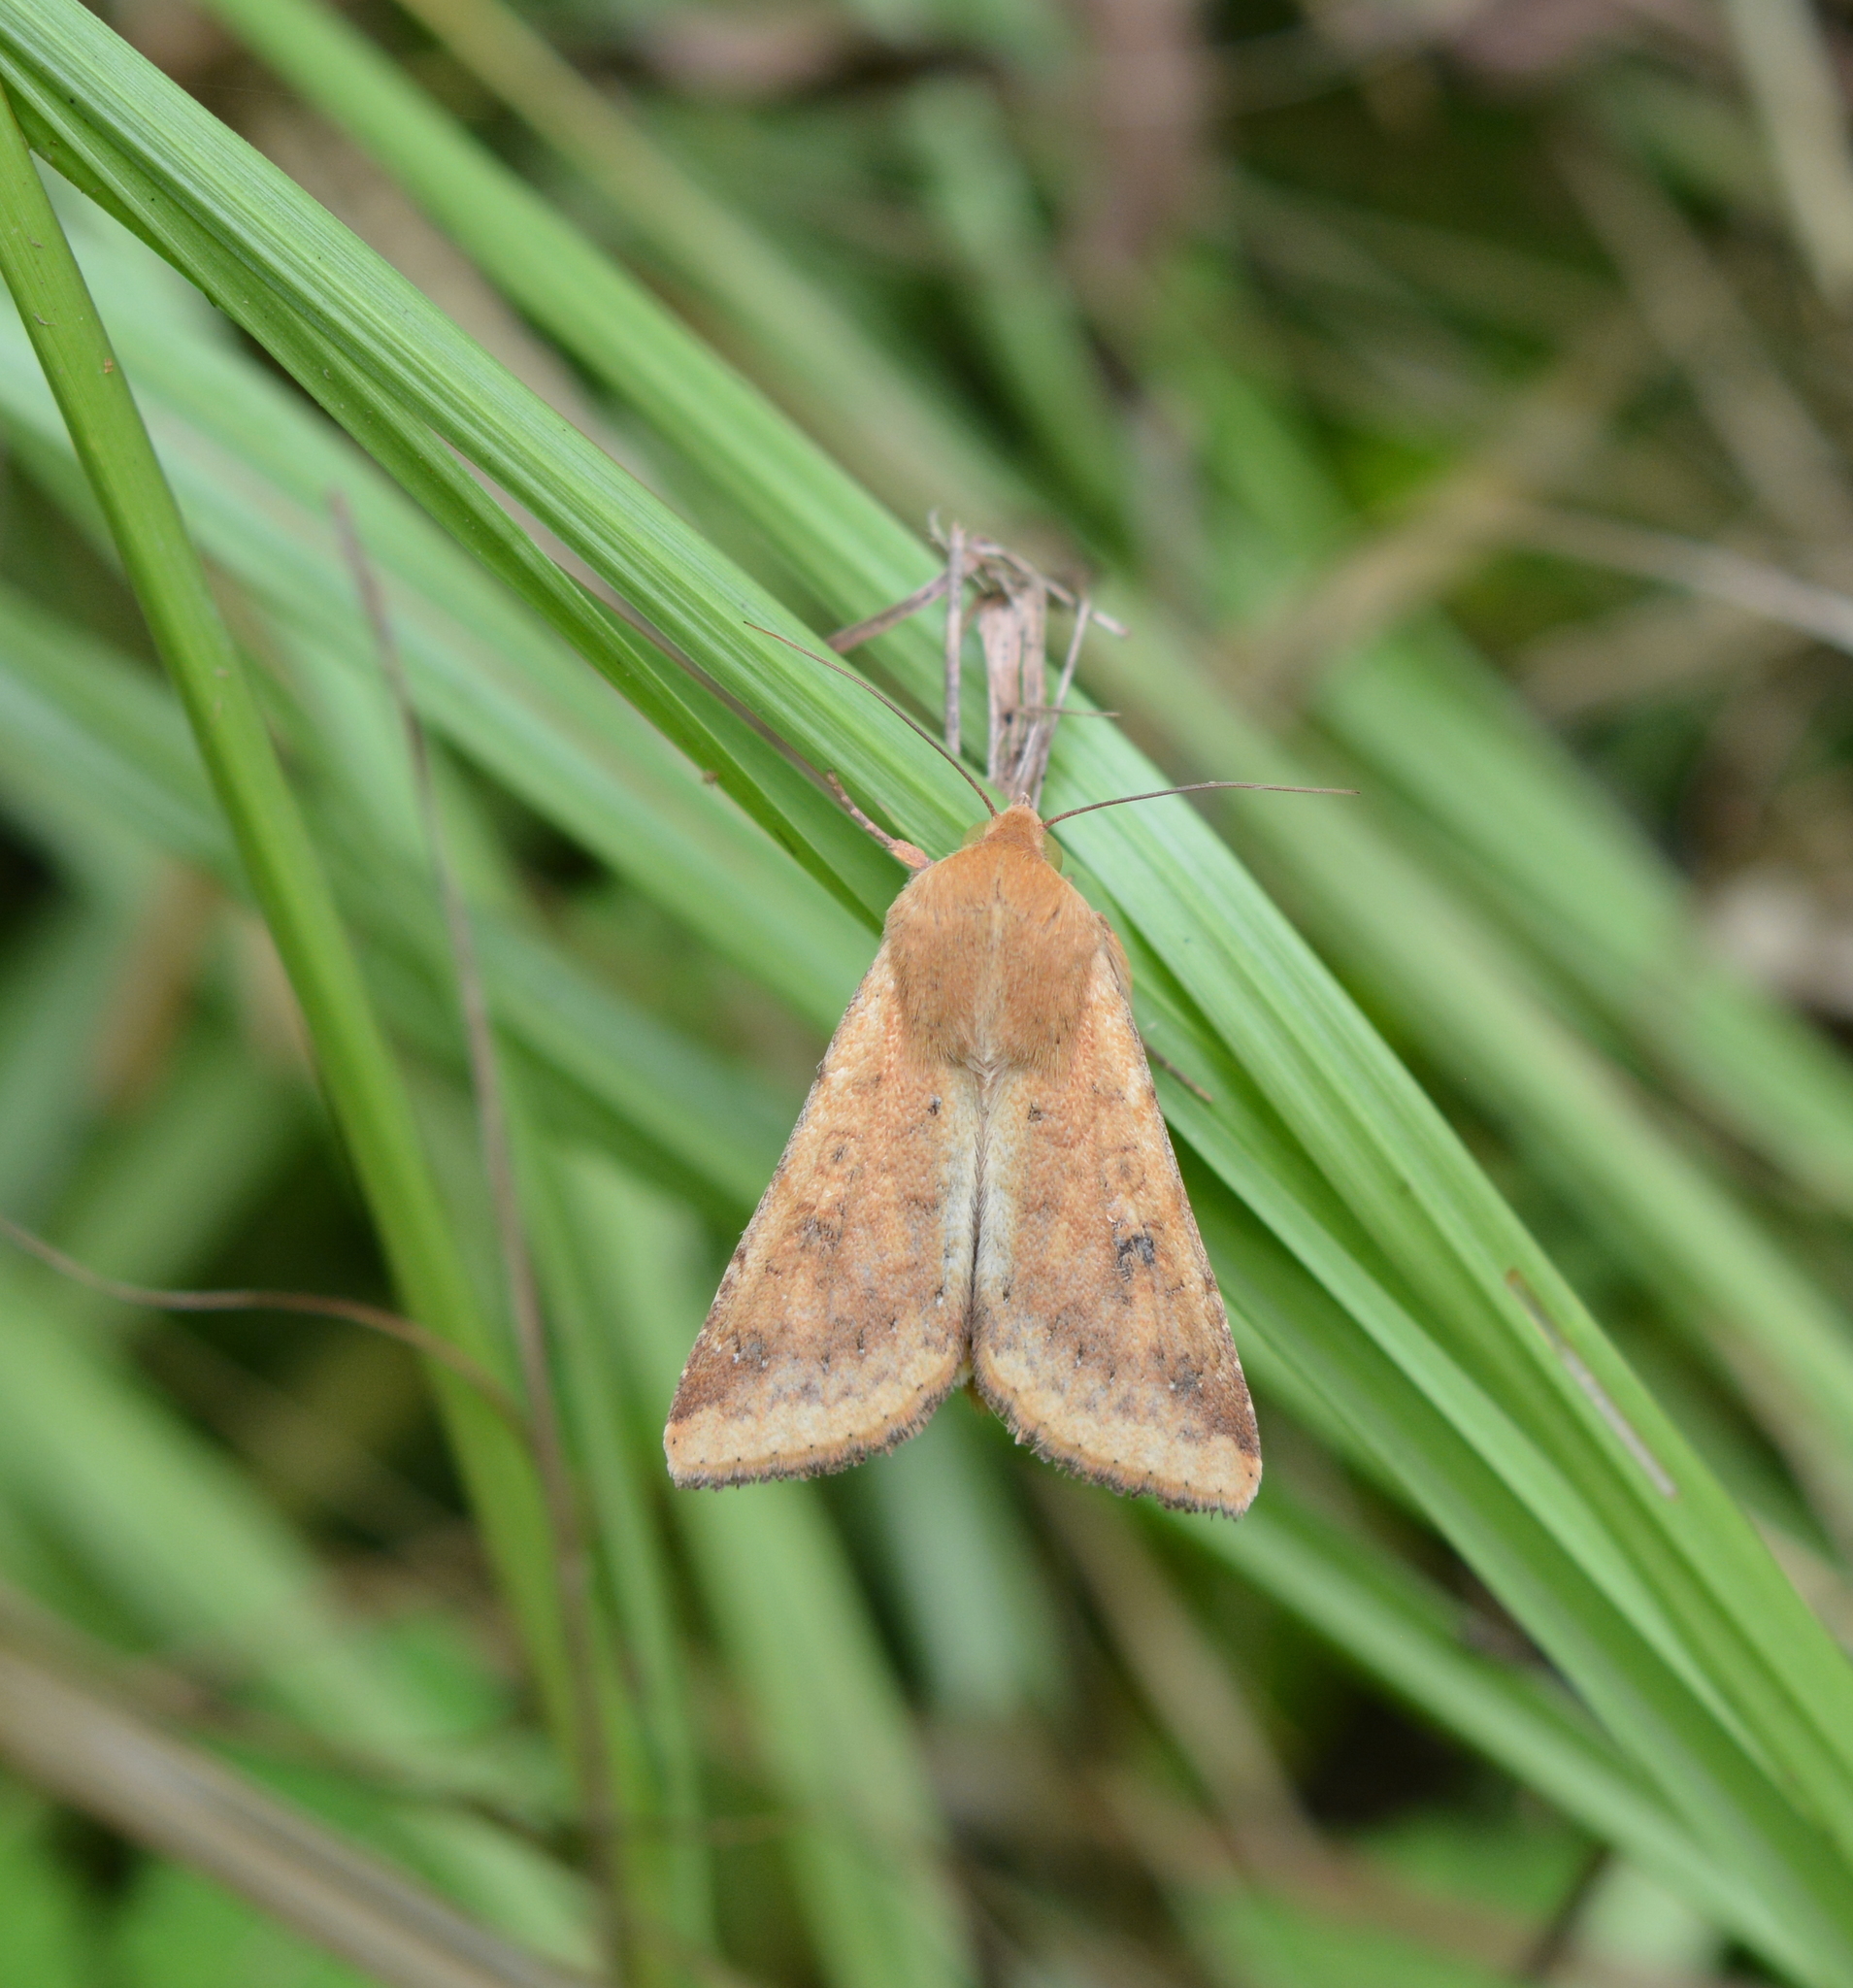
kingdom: Animalia
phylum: Arthropoda
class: Insecta
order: Lepidoptera
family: Noctuidae
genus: Helicoverpa
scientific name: Helicoverpa zea
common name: Bollworm
